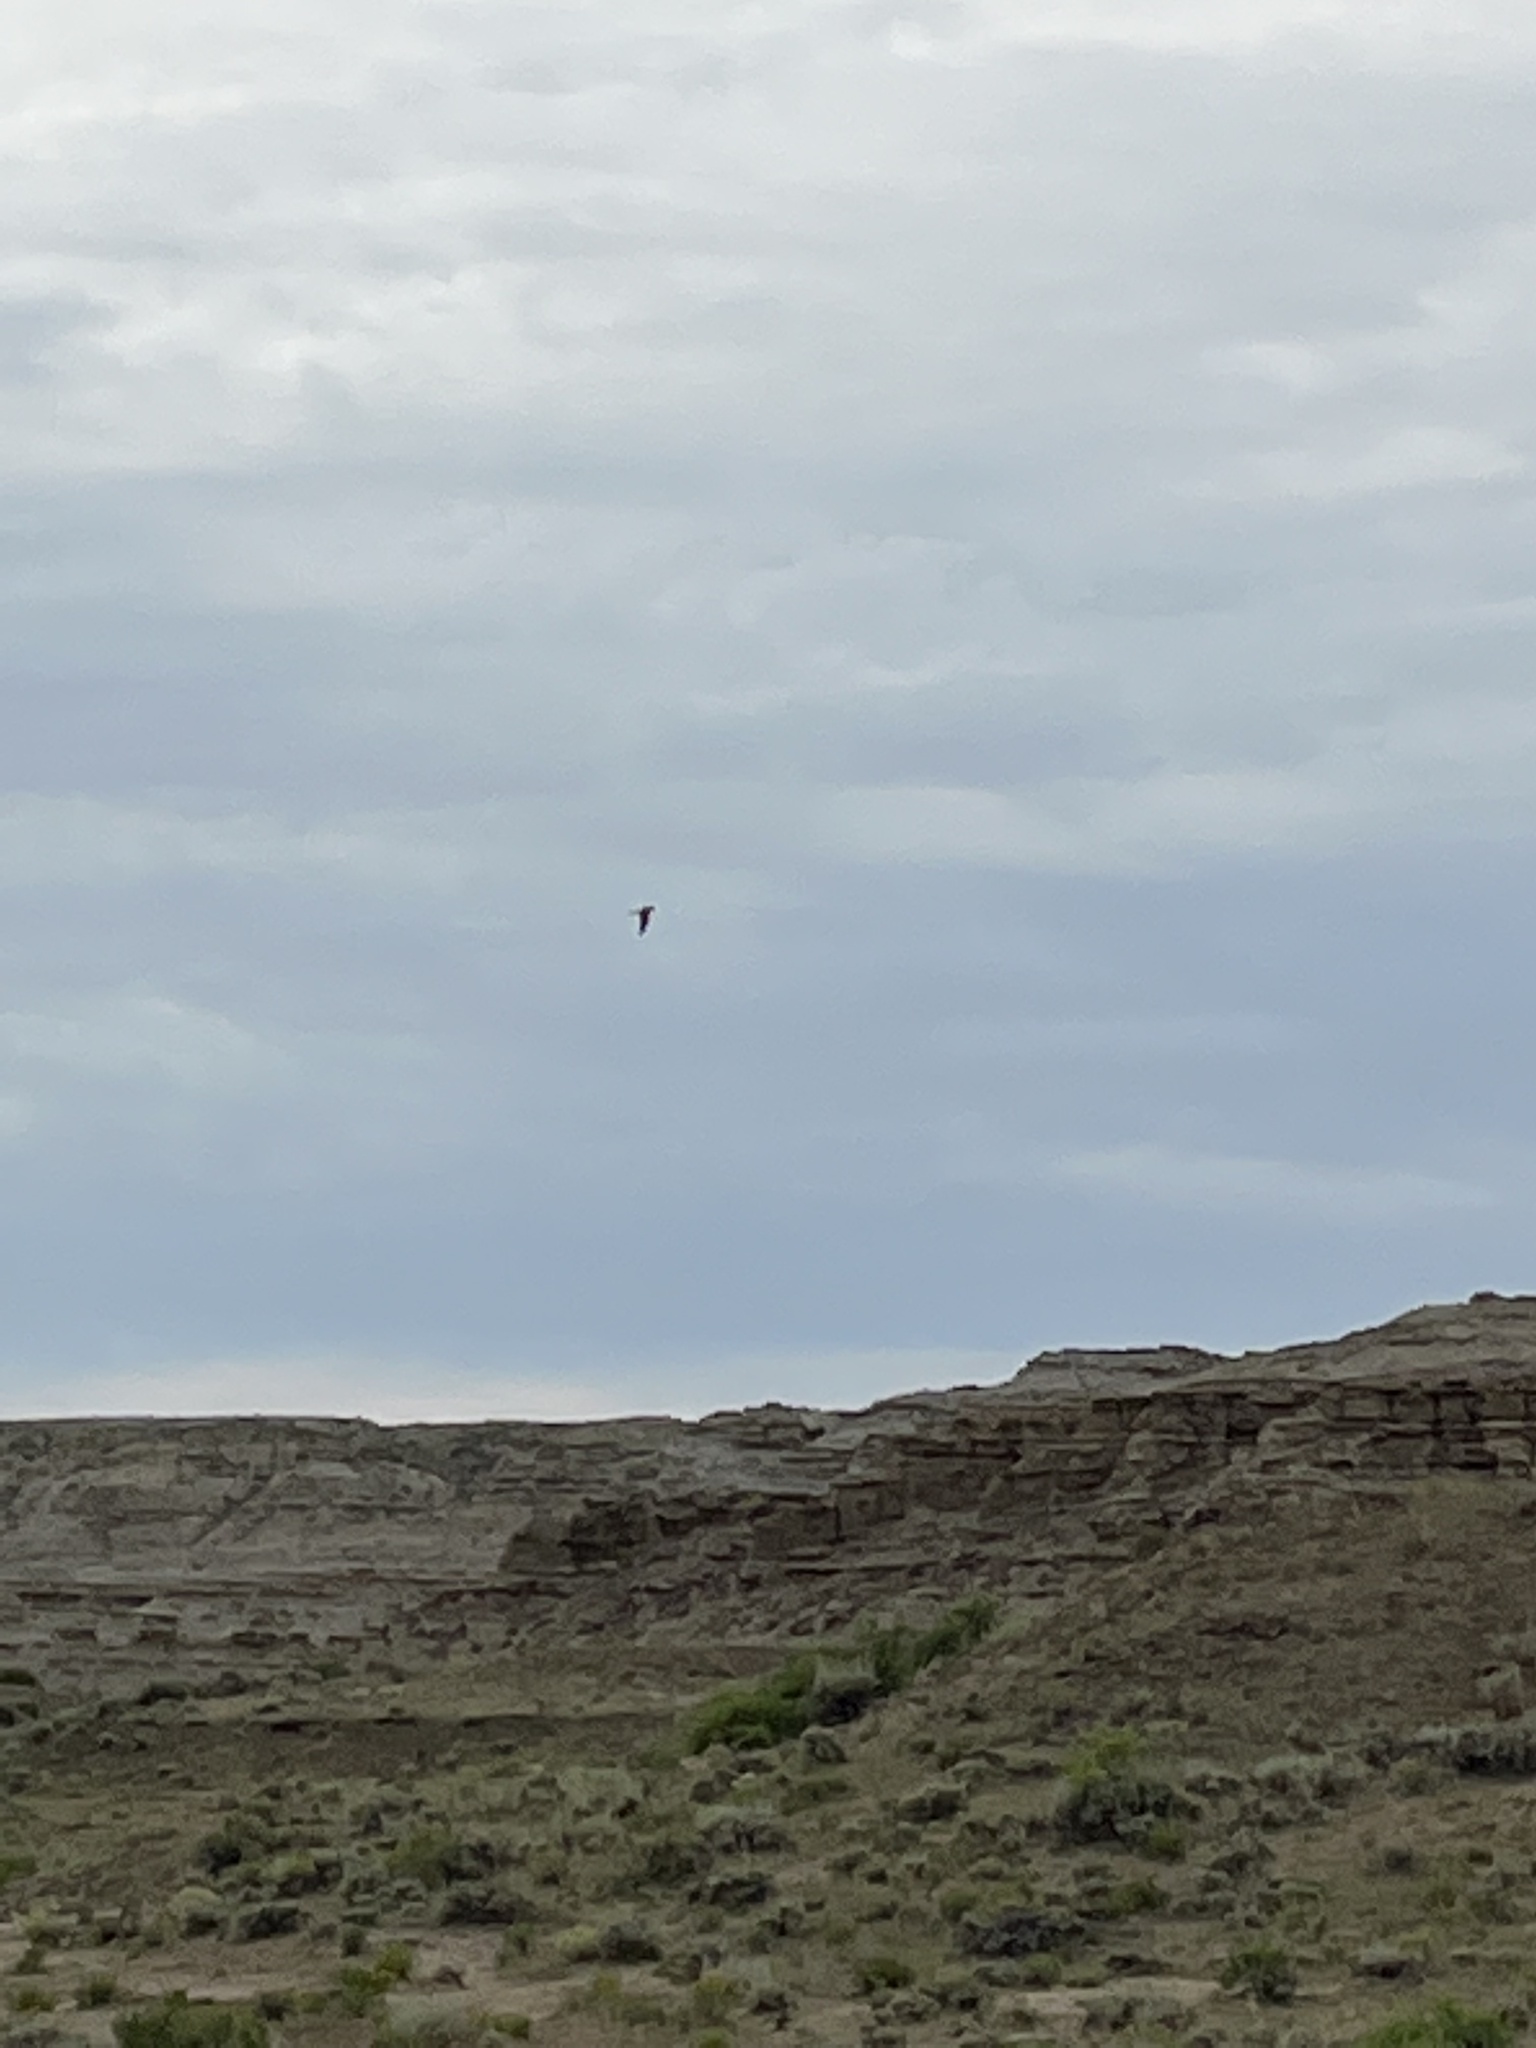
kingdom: Animalia
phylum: Chordata
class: Aves
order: Falconiformes
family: Falconidae
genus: Falco
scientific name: Falco mexicanus
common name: Prairie falcon
